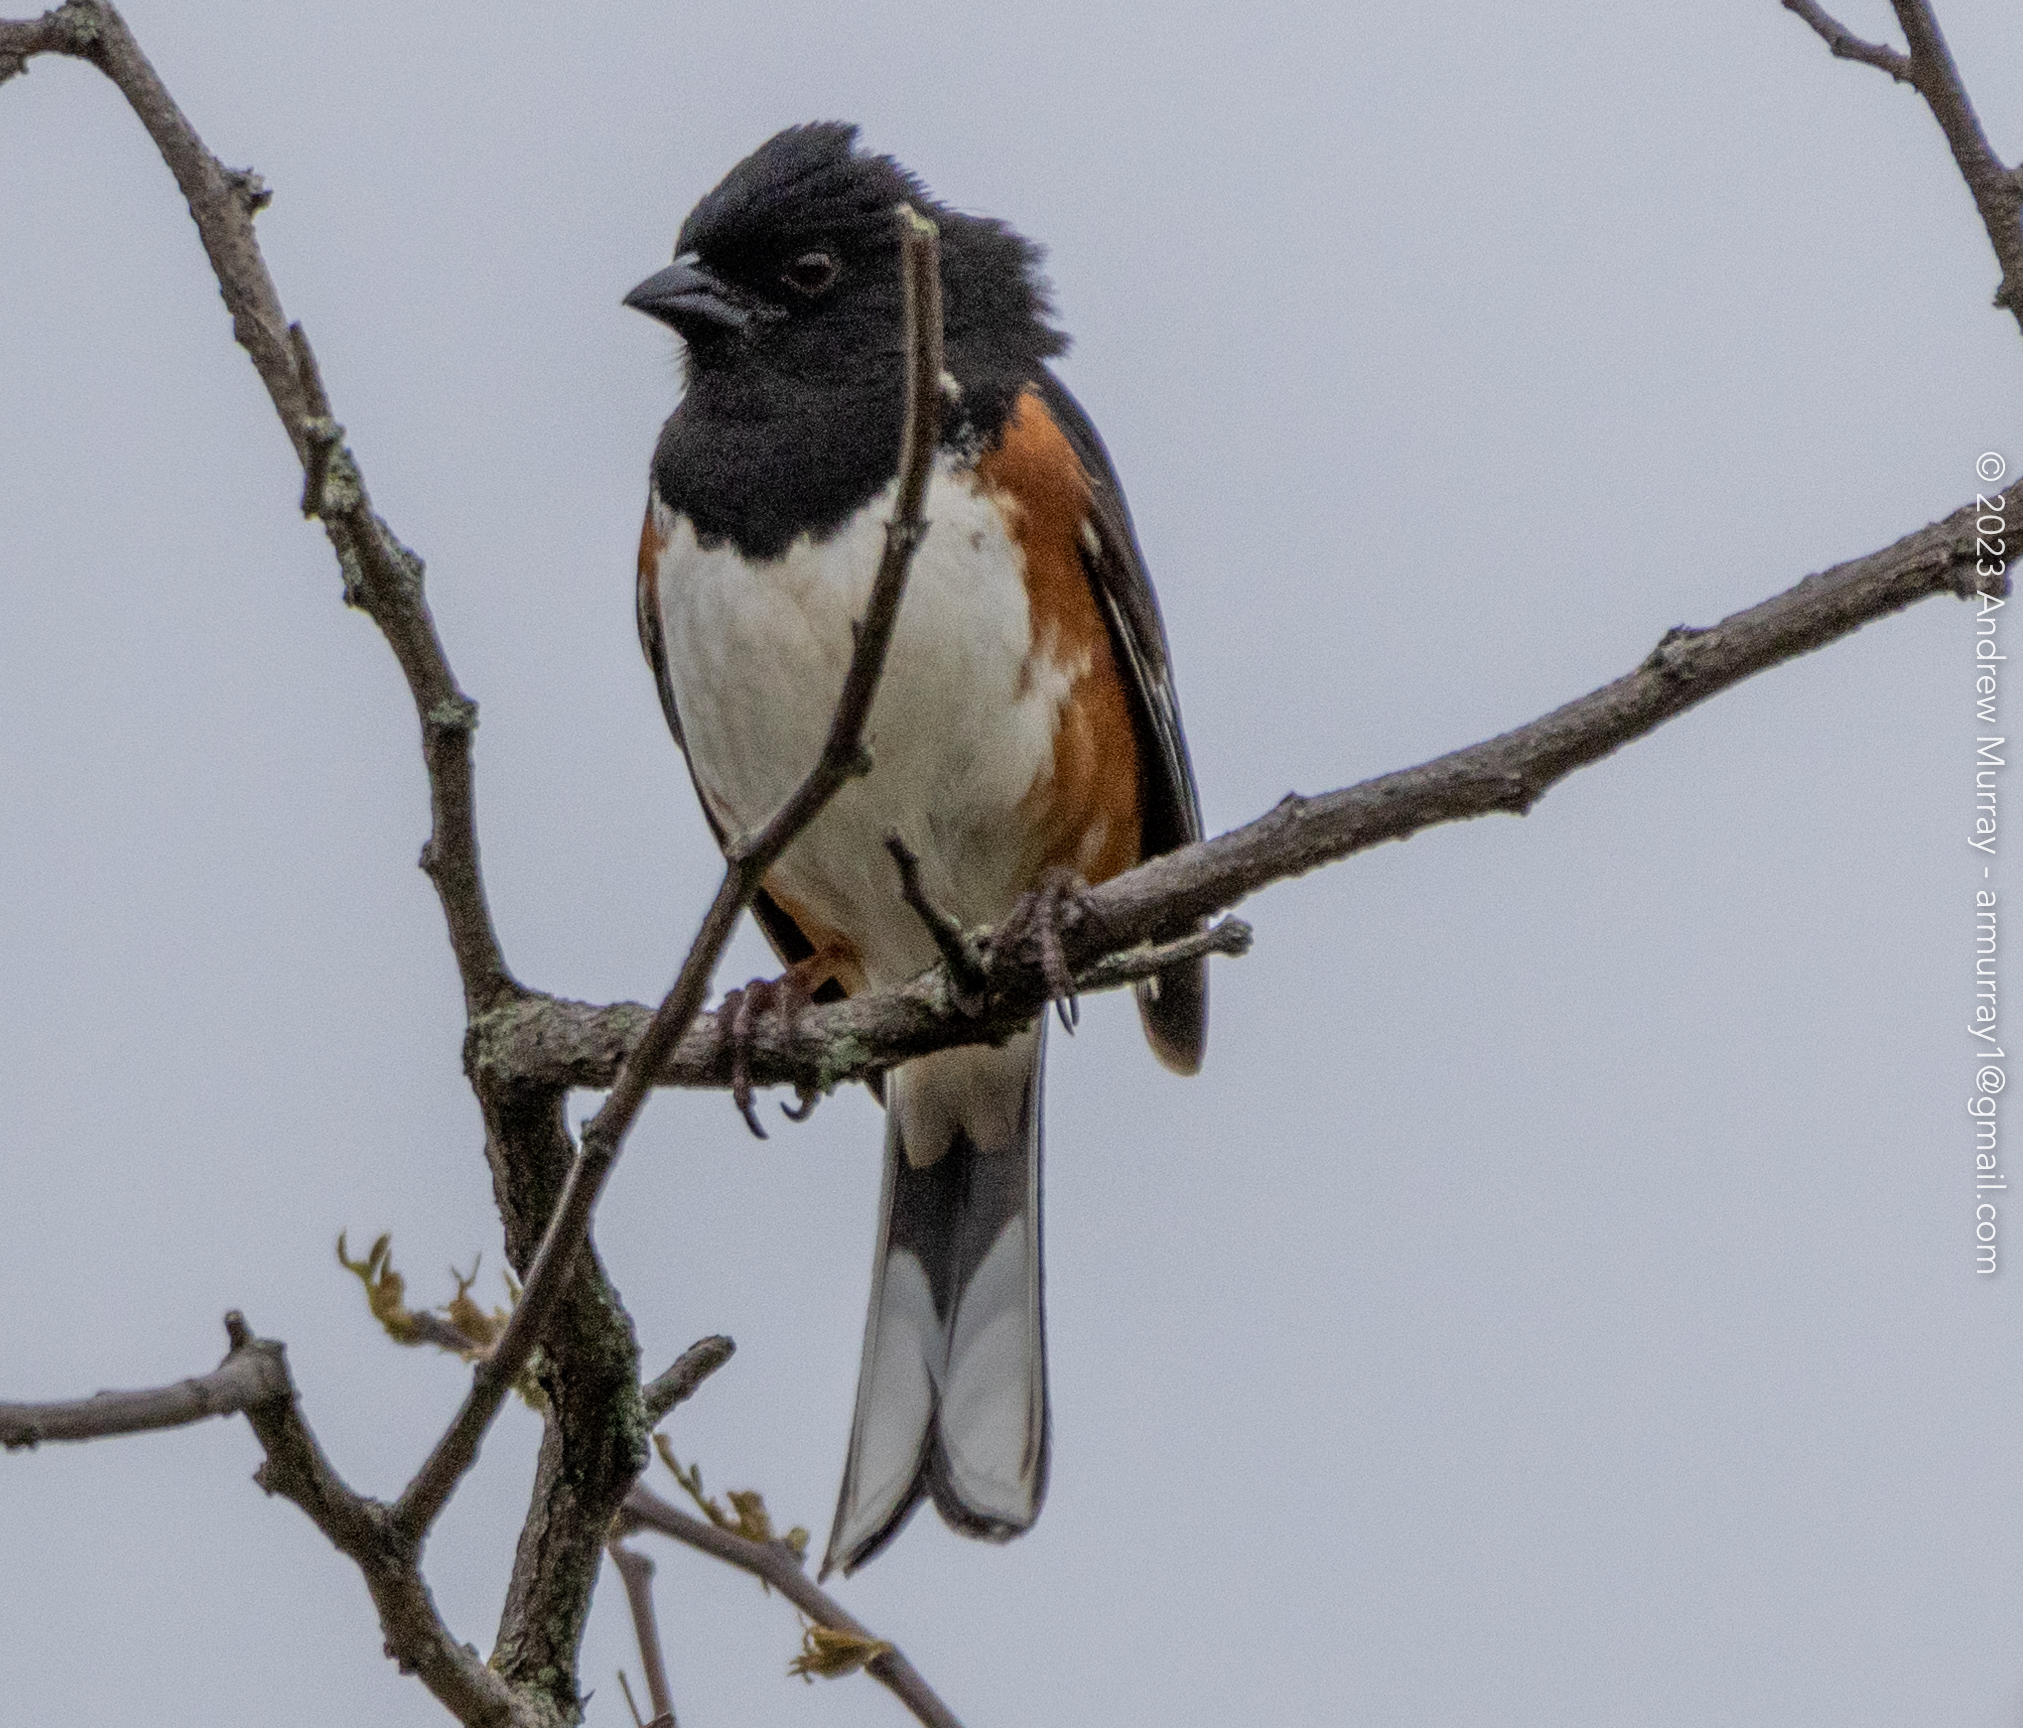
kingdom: Animalia
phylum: Chordata
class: Aves
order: Passeriformes
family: Passerellidae
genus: Pipilo
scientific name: Pipilo erythrophthalmus
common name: Eastern towhee
